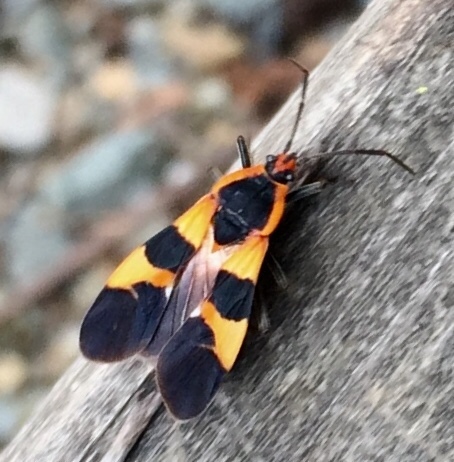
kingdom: Animalia
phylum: Arthropoda
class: Insecta
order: Hemiptera
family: Lygaeidae
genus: Oncopeltus
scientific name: Oncopeltus fasciatus
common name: Large milkweed bug
